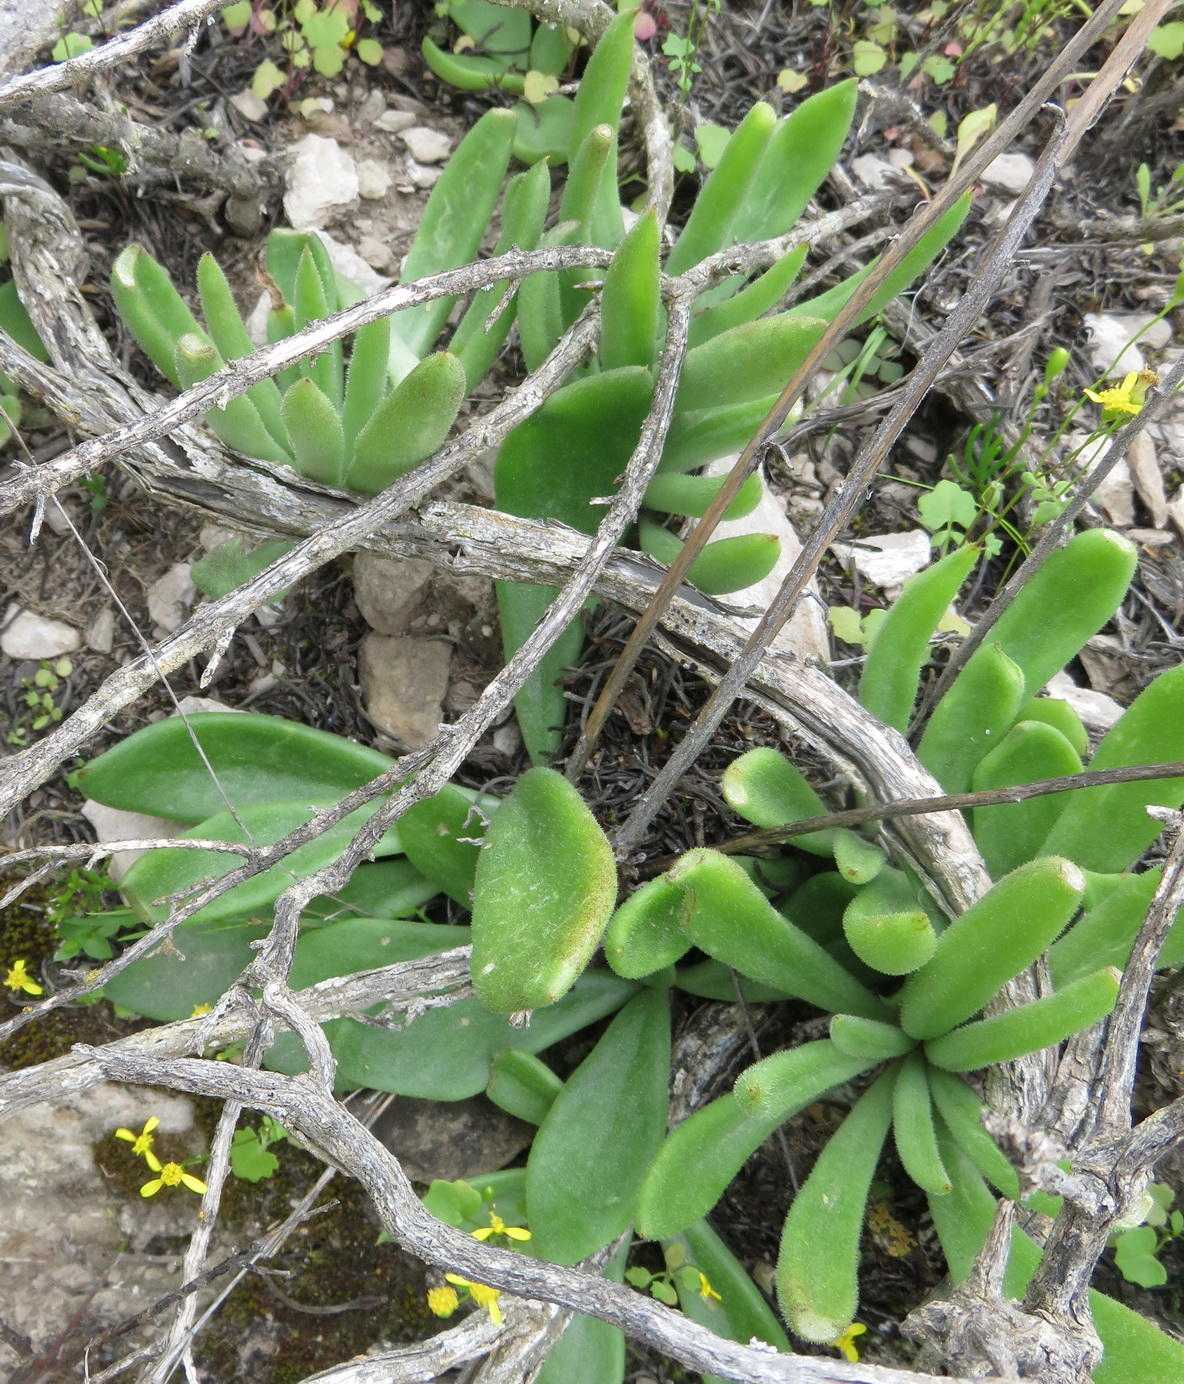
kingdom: Plantae
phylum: Tracheophyta
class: Magnoliopsida
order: Saxifragales
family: Crassulaceae
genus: Tylecodon
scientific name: Tylecodon ventricosus
